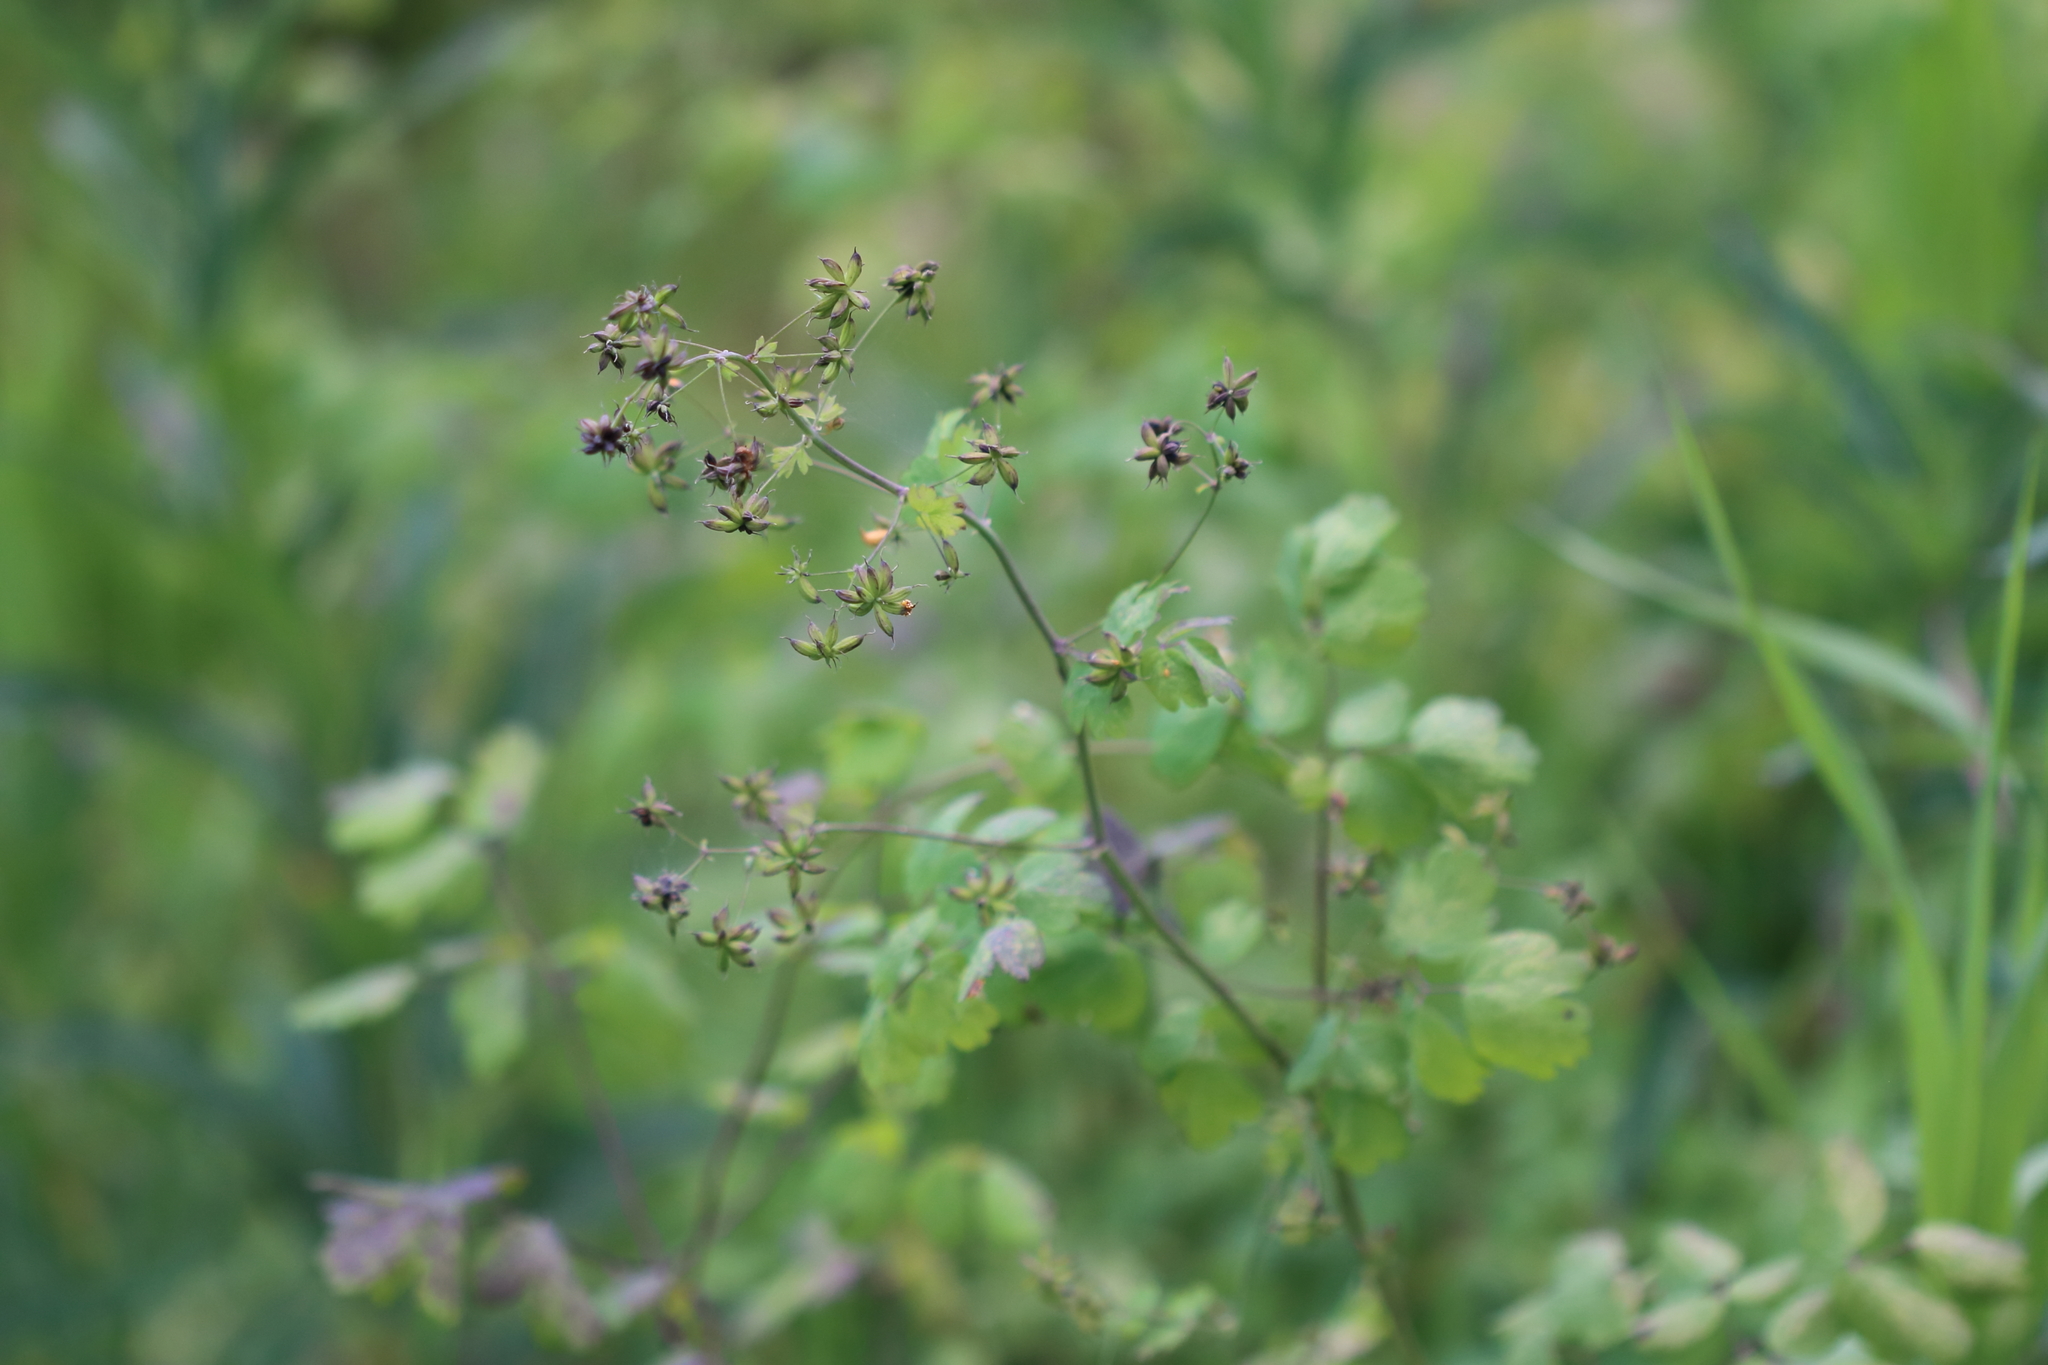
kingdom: Plantae
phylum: Tracheophyta
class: Magnoliopsida
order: Ranunculales
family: Ranunculaceae
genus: Thalictrum
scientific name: Thalictrum occidentale
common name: Western meadow-rue
